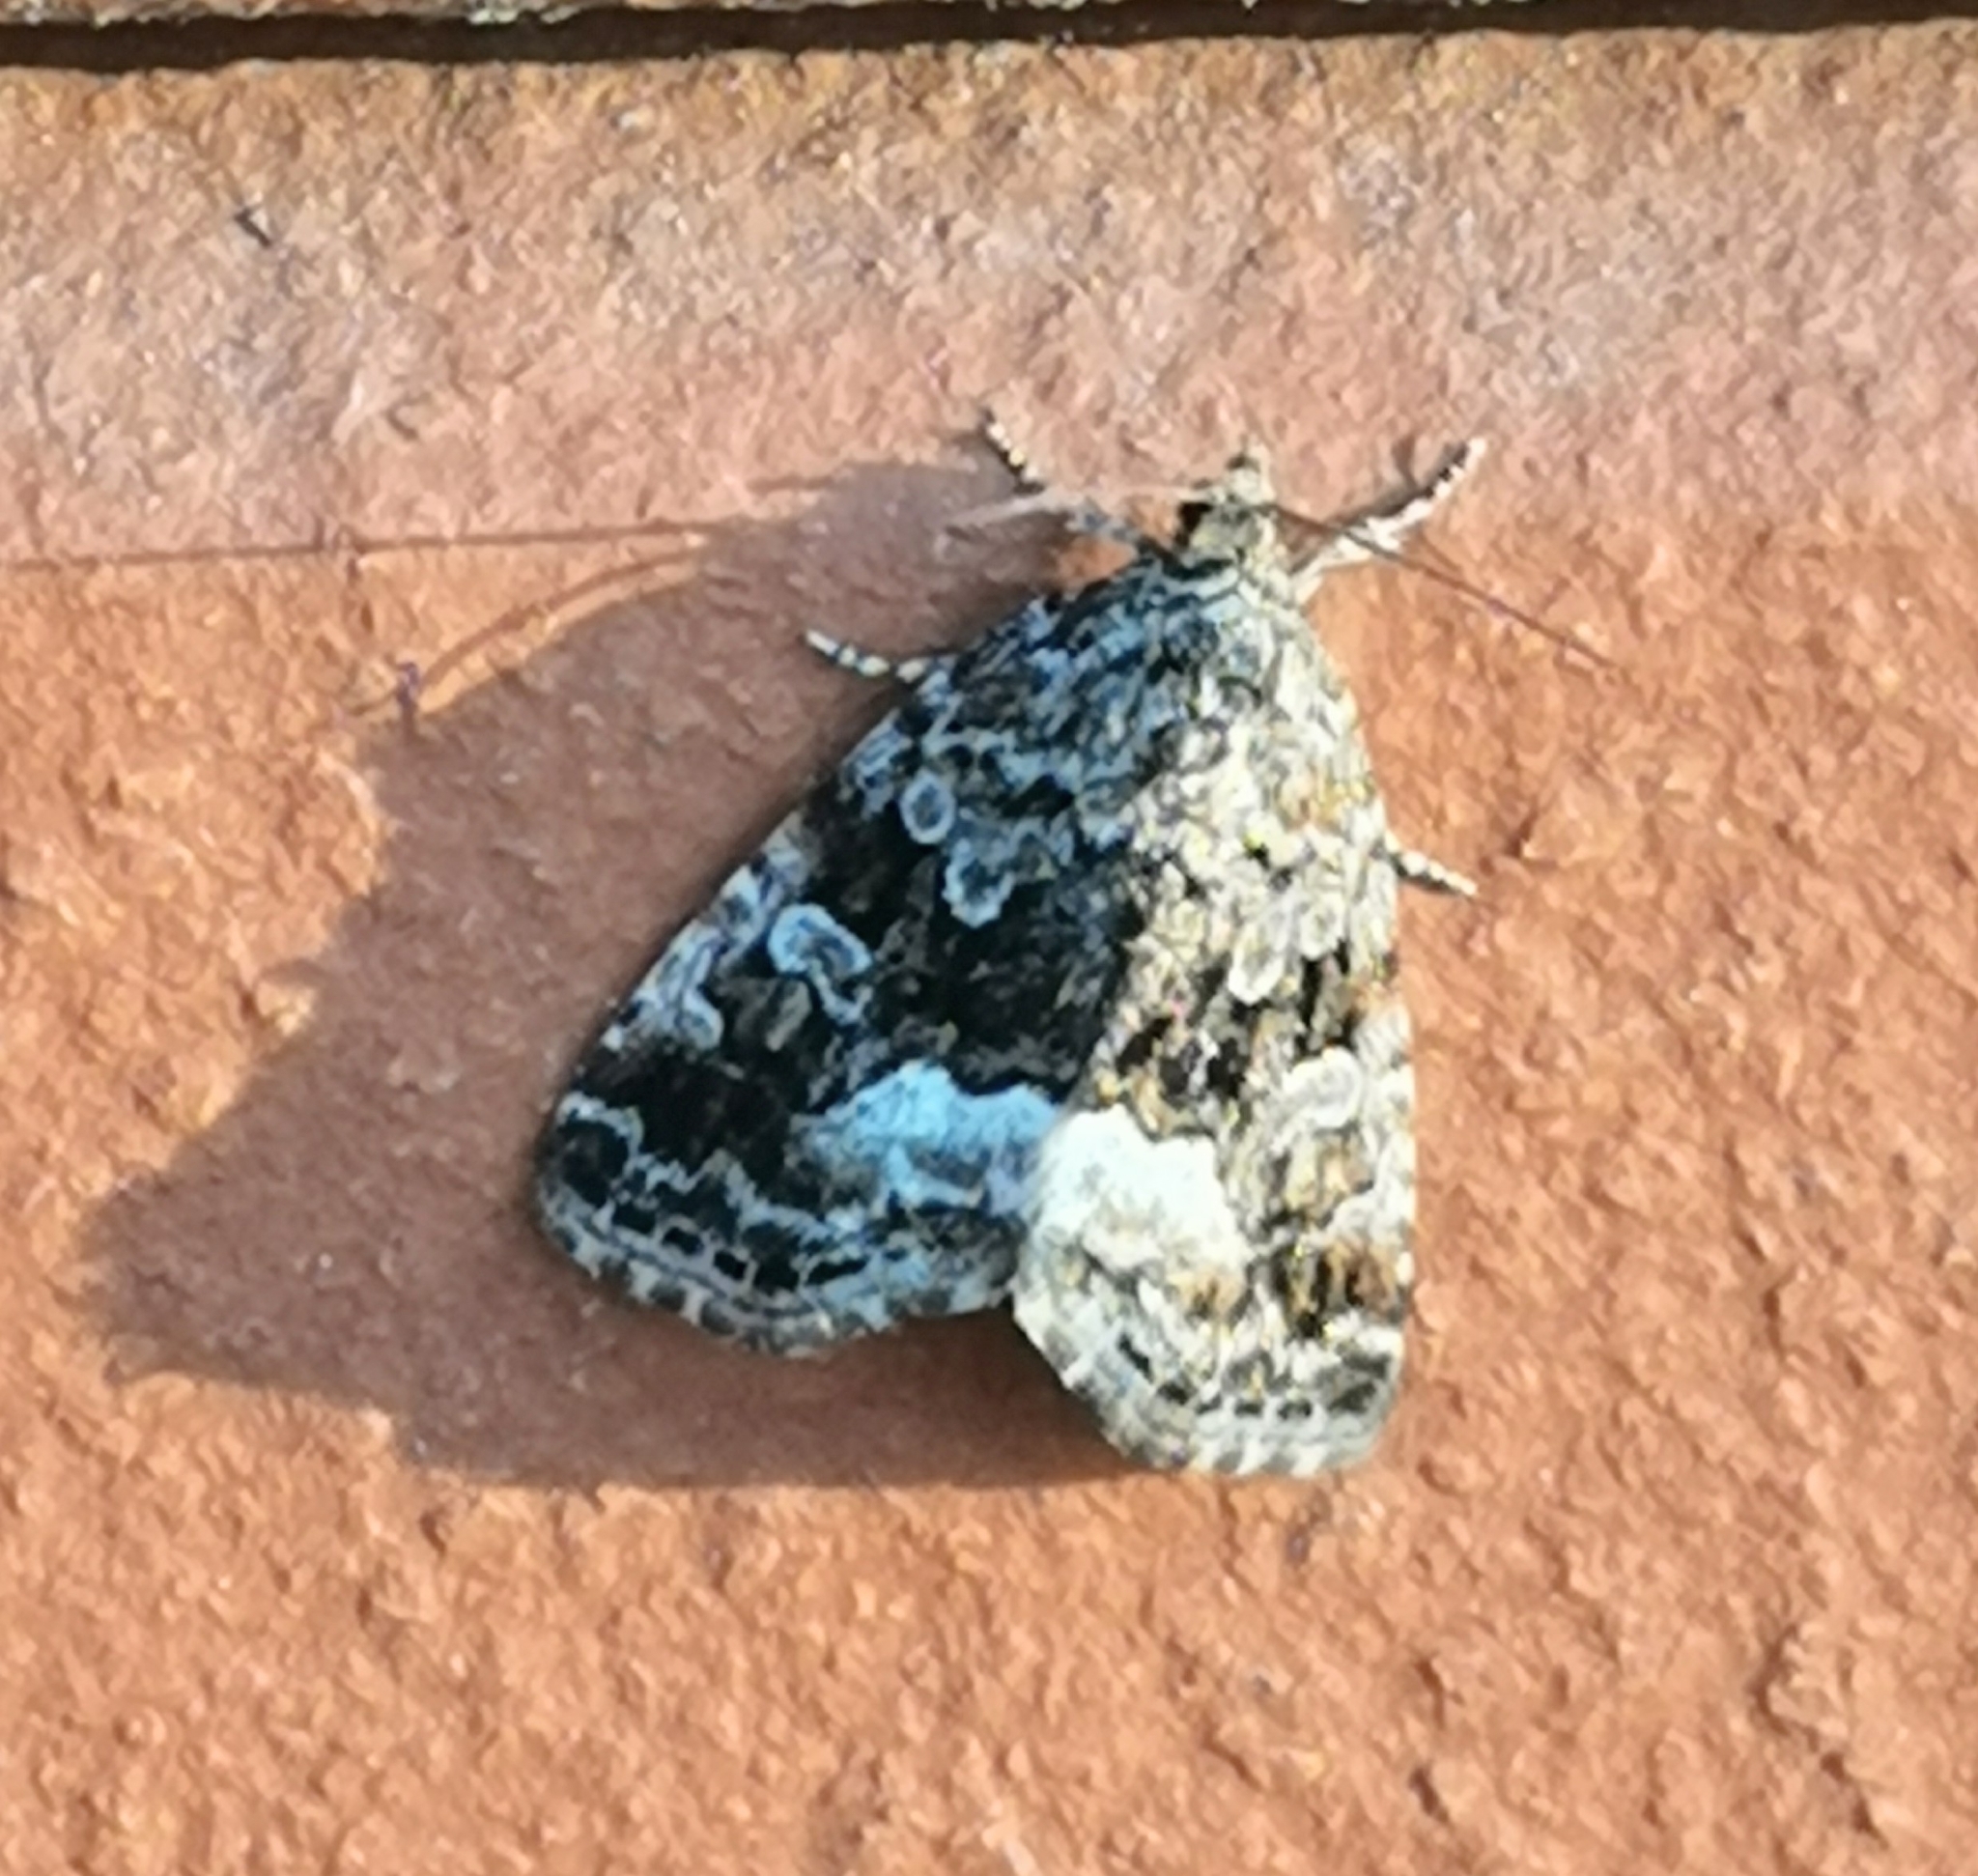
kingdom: Animalia
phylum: Arthropoda
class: Insecta
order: Lepidoptera
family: Noctuidae
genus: Deltote
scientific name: Deltote pygarga
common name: Marbled white spot
